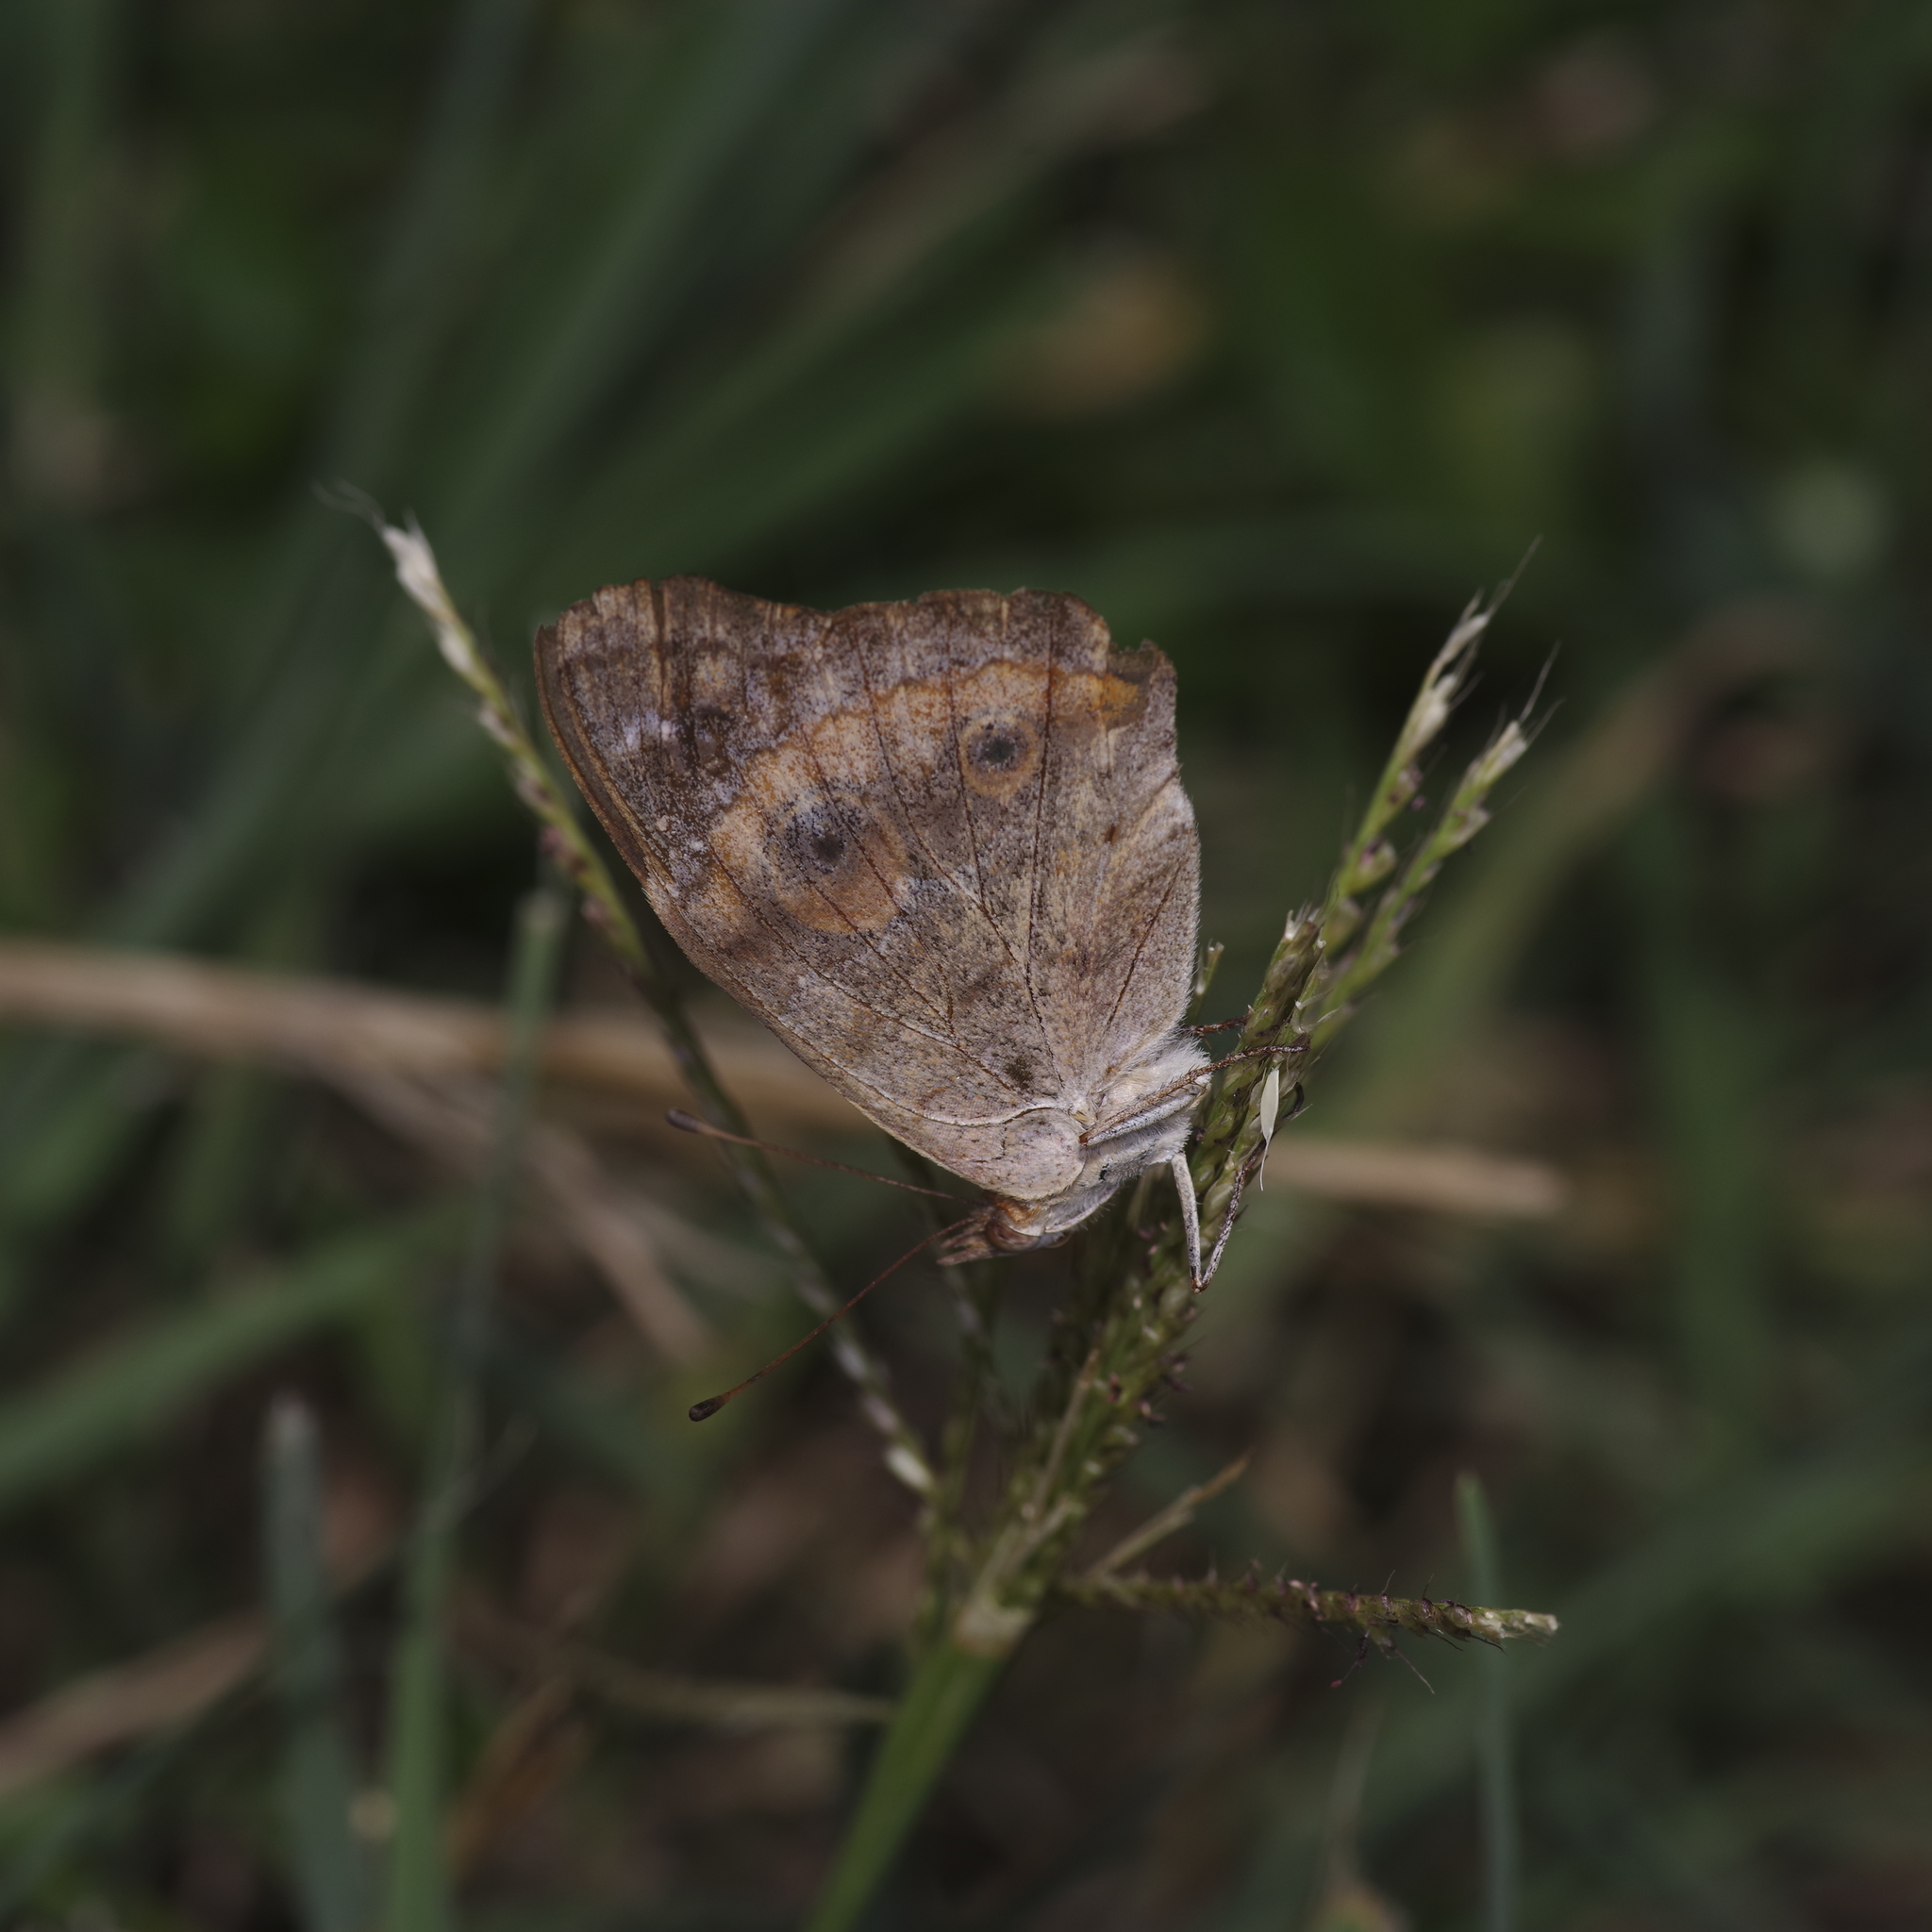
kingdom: Animalia
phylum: Arthropoda
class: Insecta
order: Lepidoptera
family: Nymphalidae
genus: Junonia
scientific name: Junonia coenia
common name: Common buckeye
